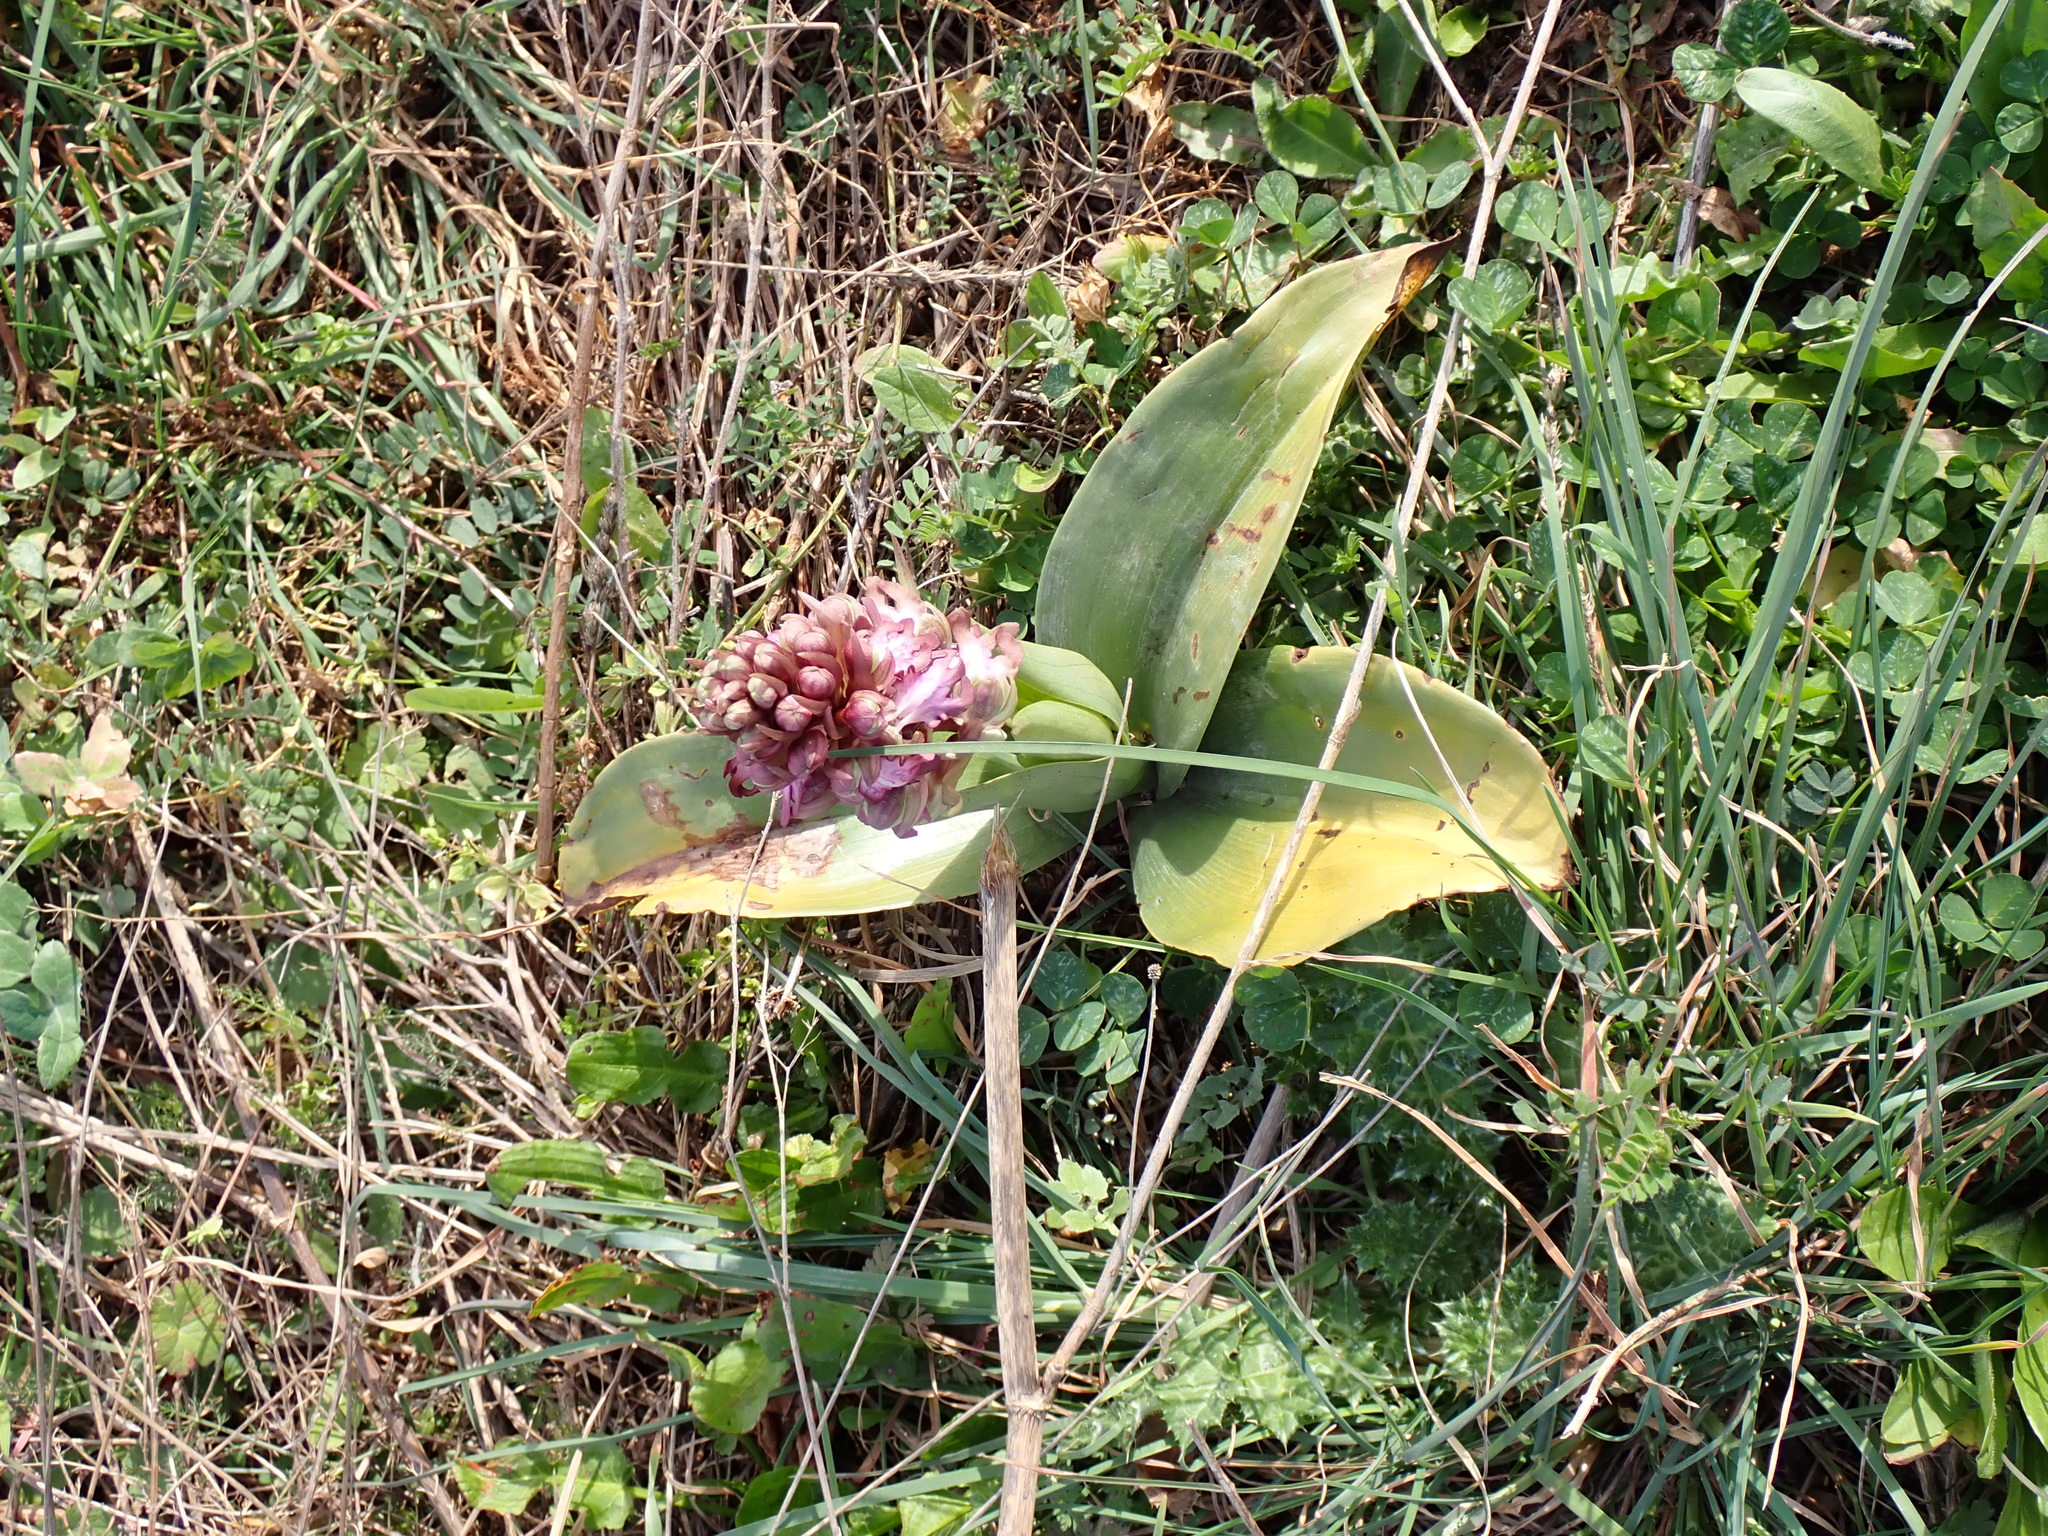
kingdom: Plantae
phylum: Tracheophyta
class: Liliopsida
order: Asparagales
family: Orchidaceae
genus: Himantoglossum
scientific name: Himantoglossum robertianum
